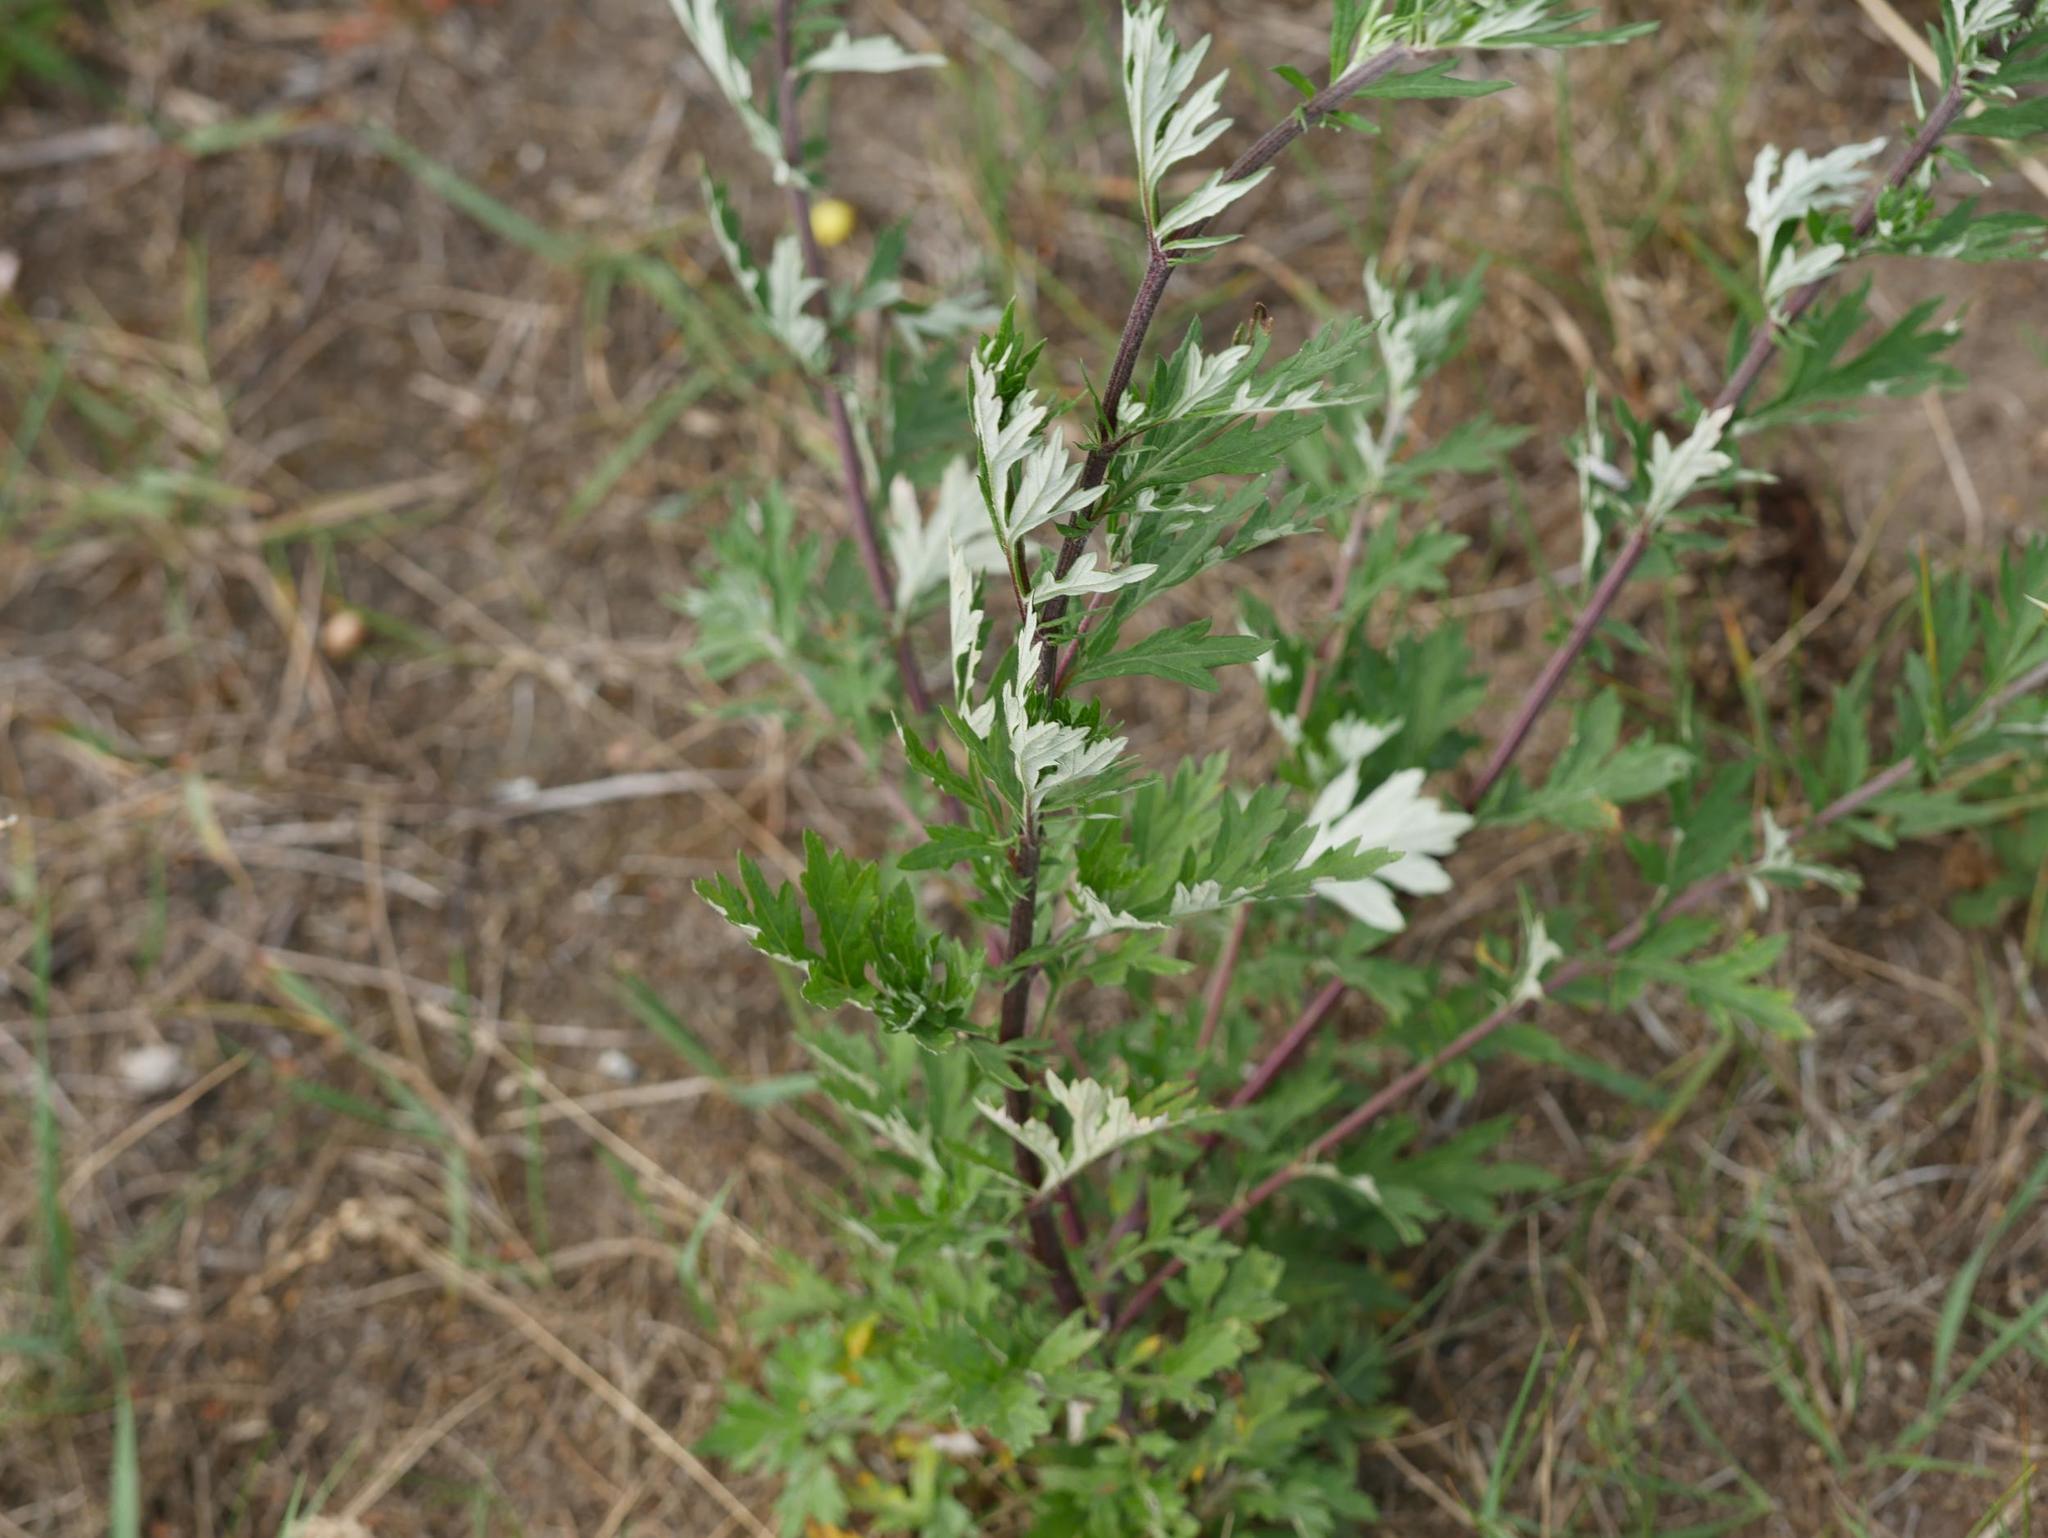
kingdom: Plantae
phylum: Tracheophyta
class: Magnoliopsida
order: Asterales
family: Asteraceae
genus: Artemisia
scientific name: Artemisia vulgaris
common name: Mugwort
